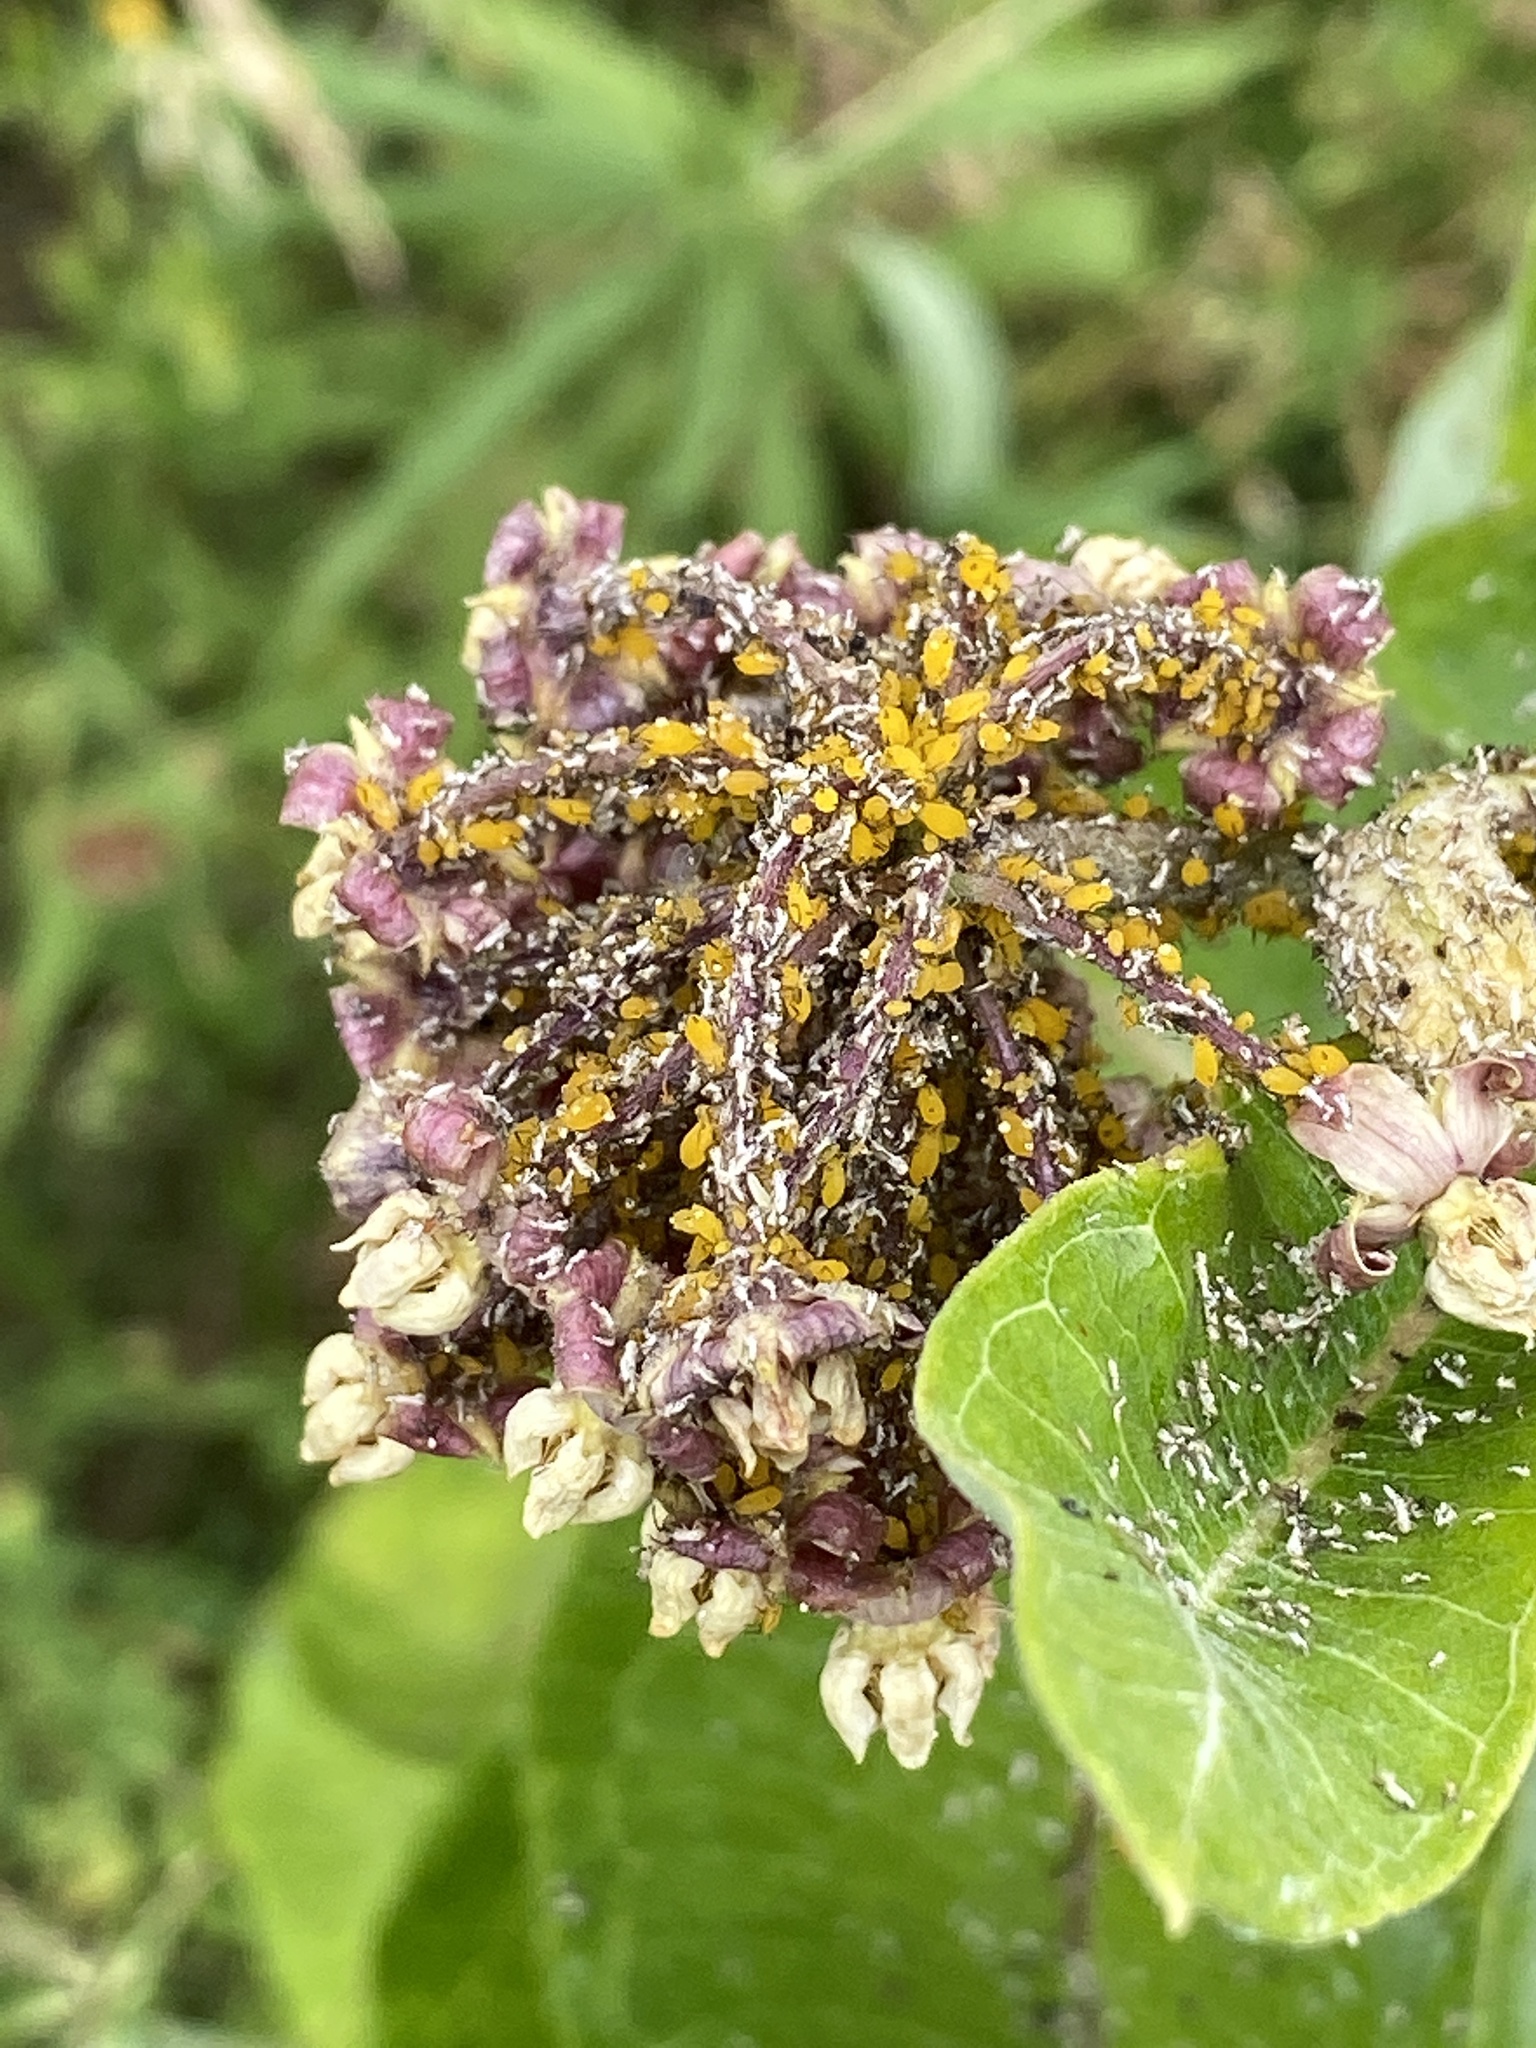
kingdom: Animalia
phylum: Arthropoda
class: Insecta
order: Hemiptera
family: Aphididae
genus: Aphis
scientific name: Aphis nerii
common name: Oleander aphid
